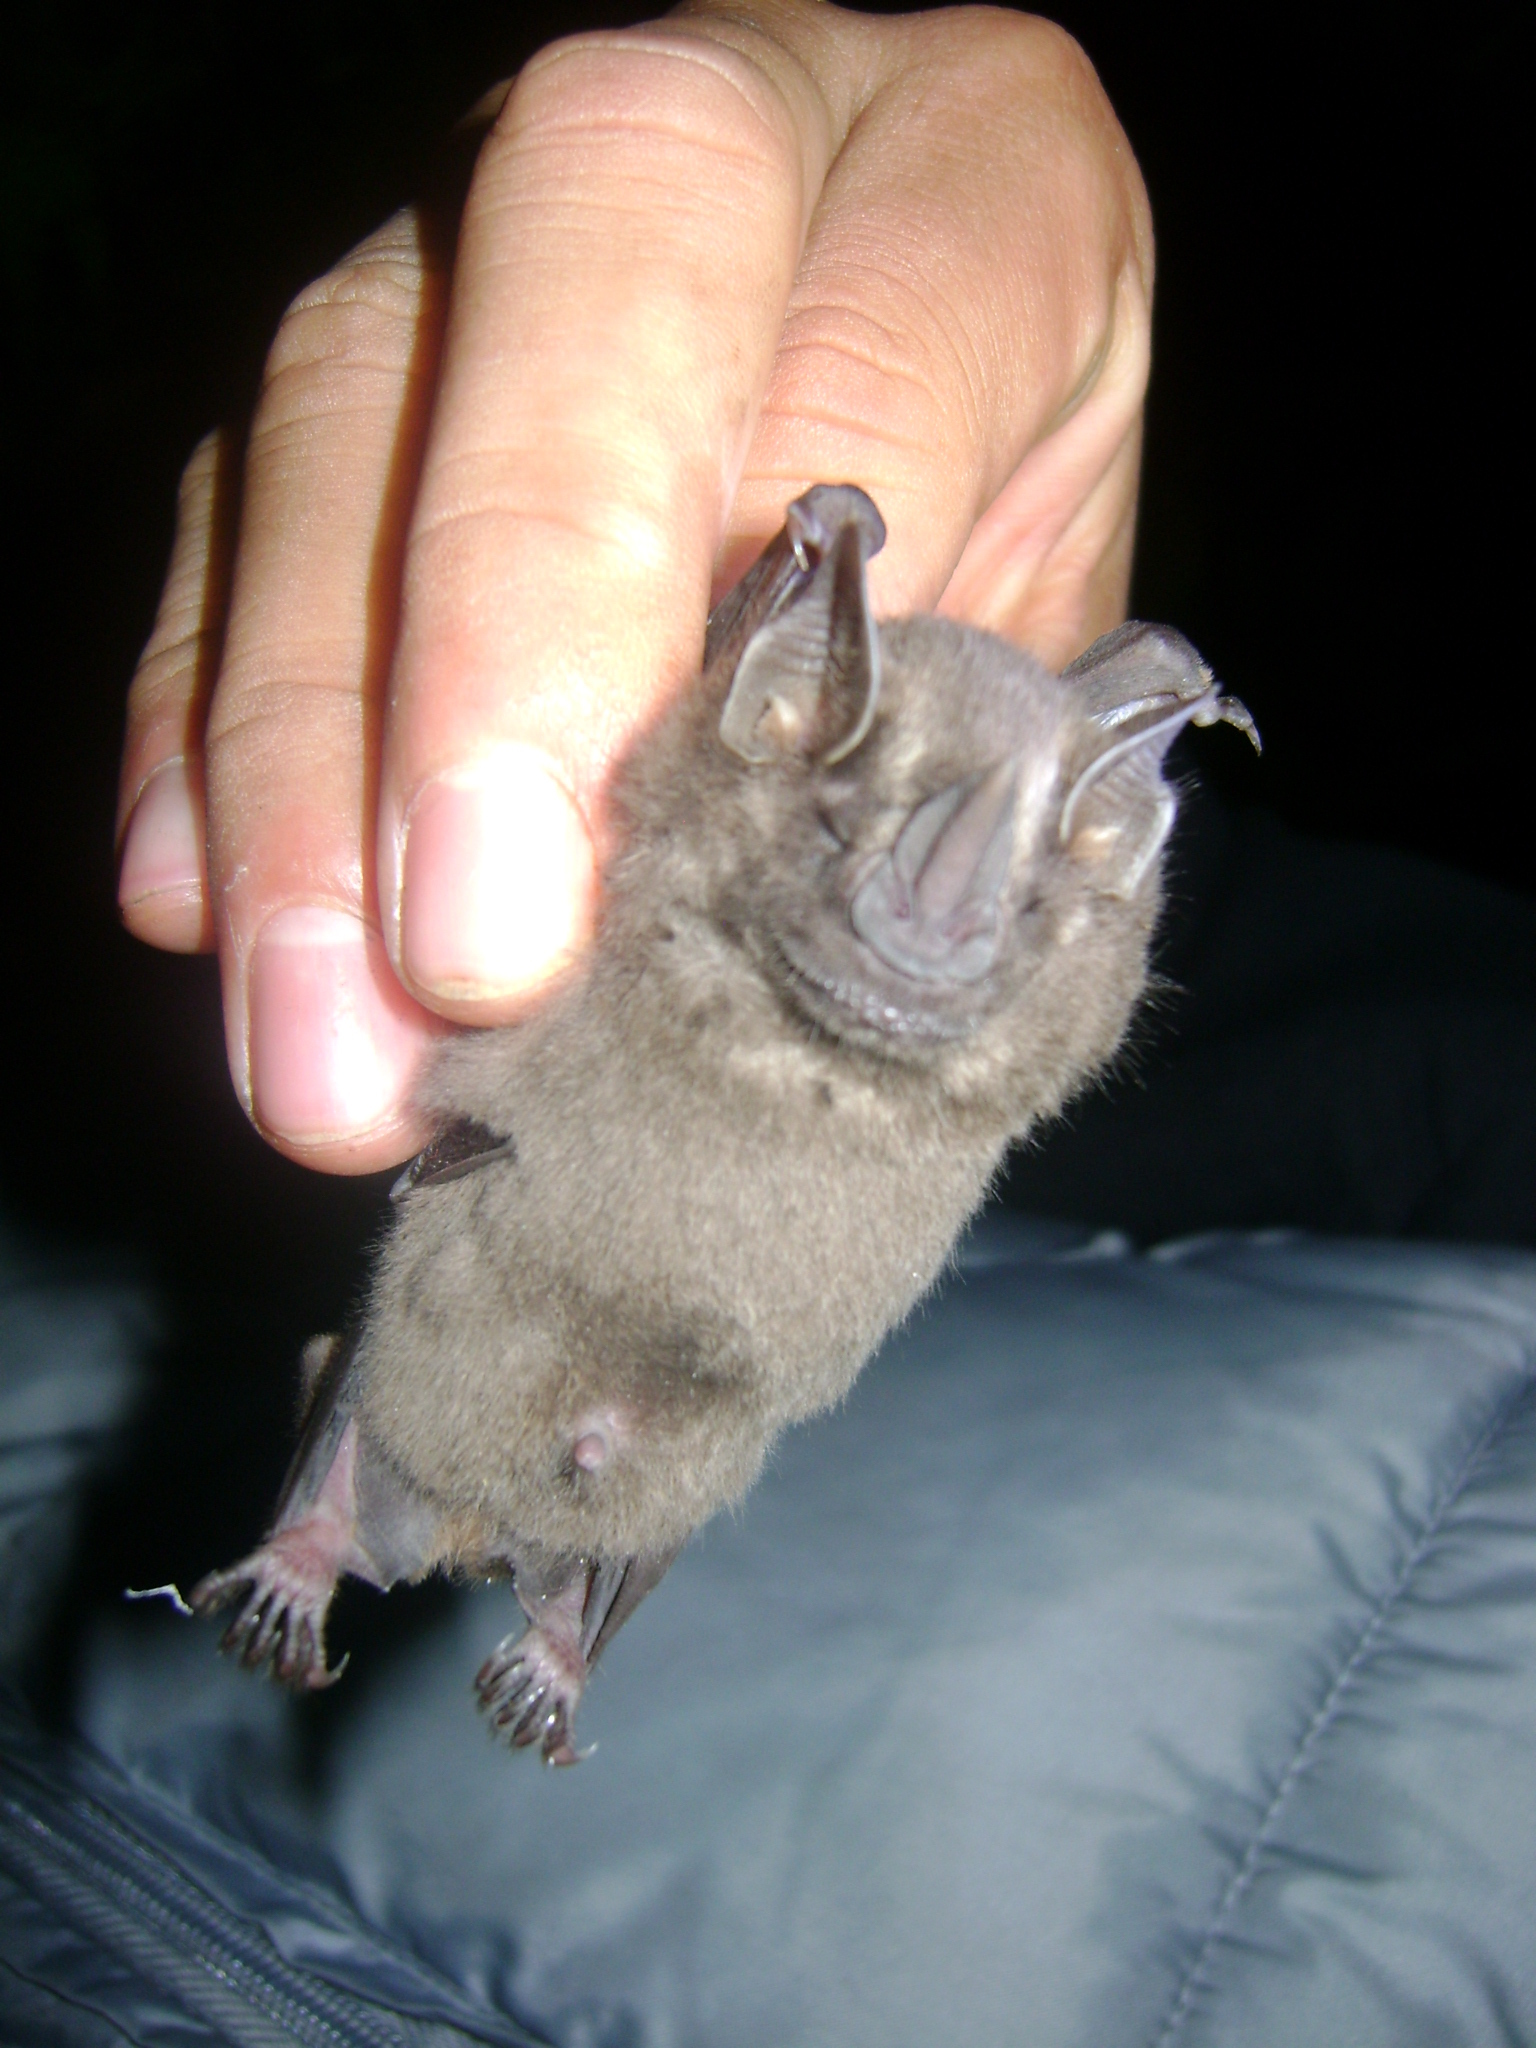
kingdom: Animalia
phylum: Chordata
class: Mammalia
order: Chiroptera
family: Phyllostomidae
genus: Artibeus
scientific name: Artibeus toltecus
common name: Toltec fruit-eating bat
